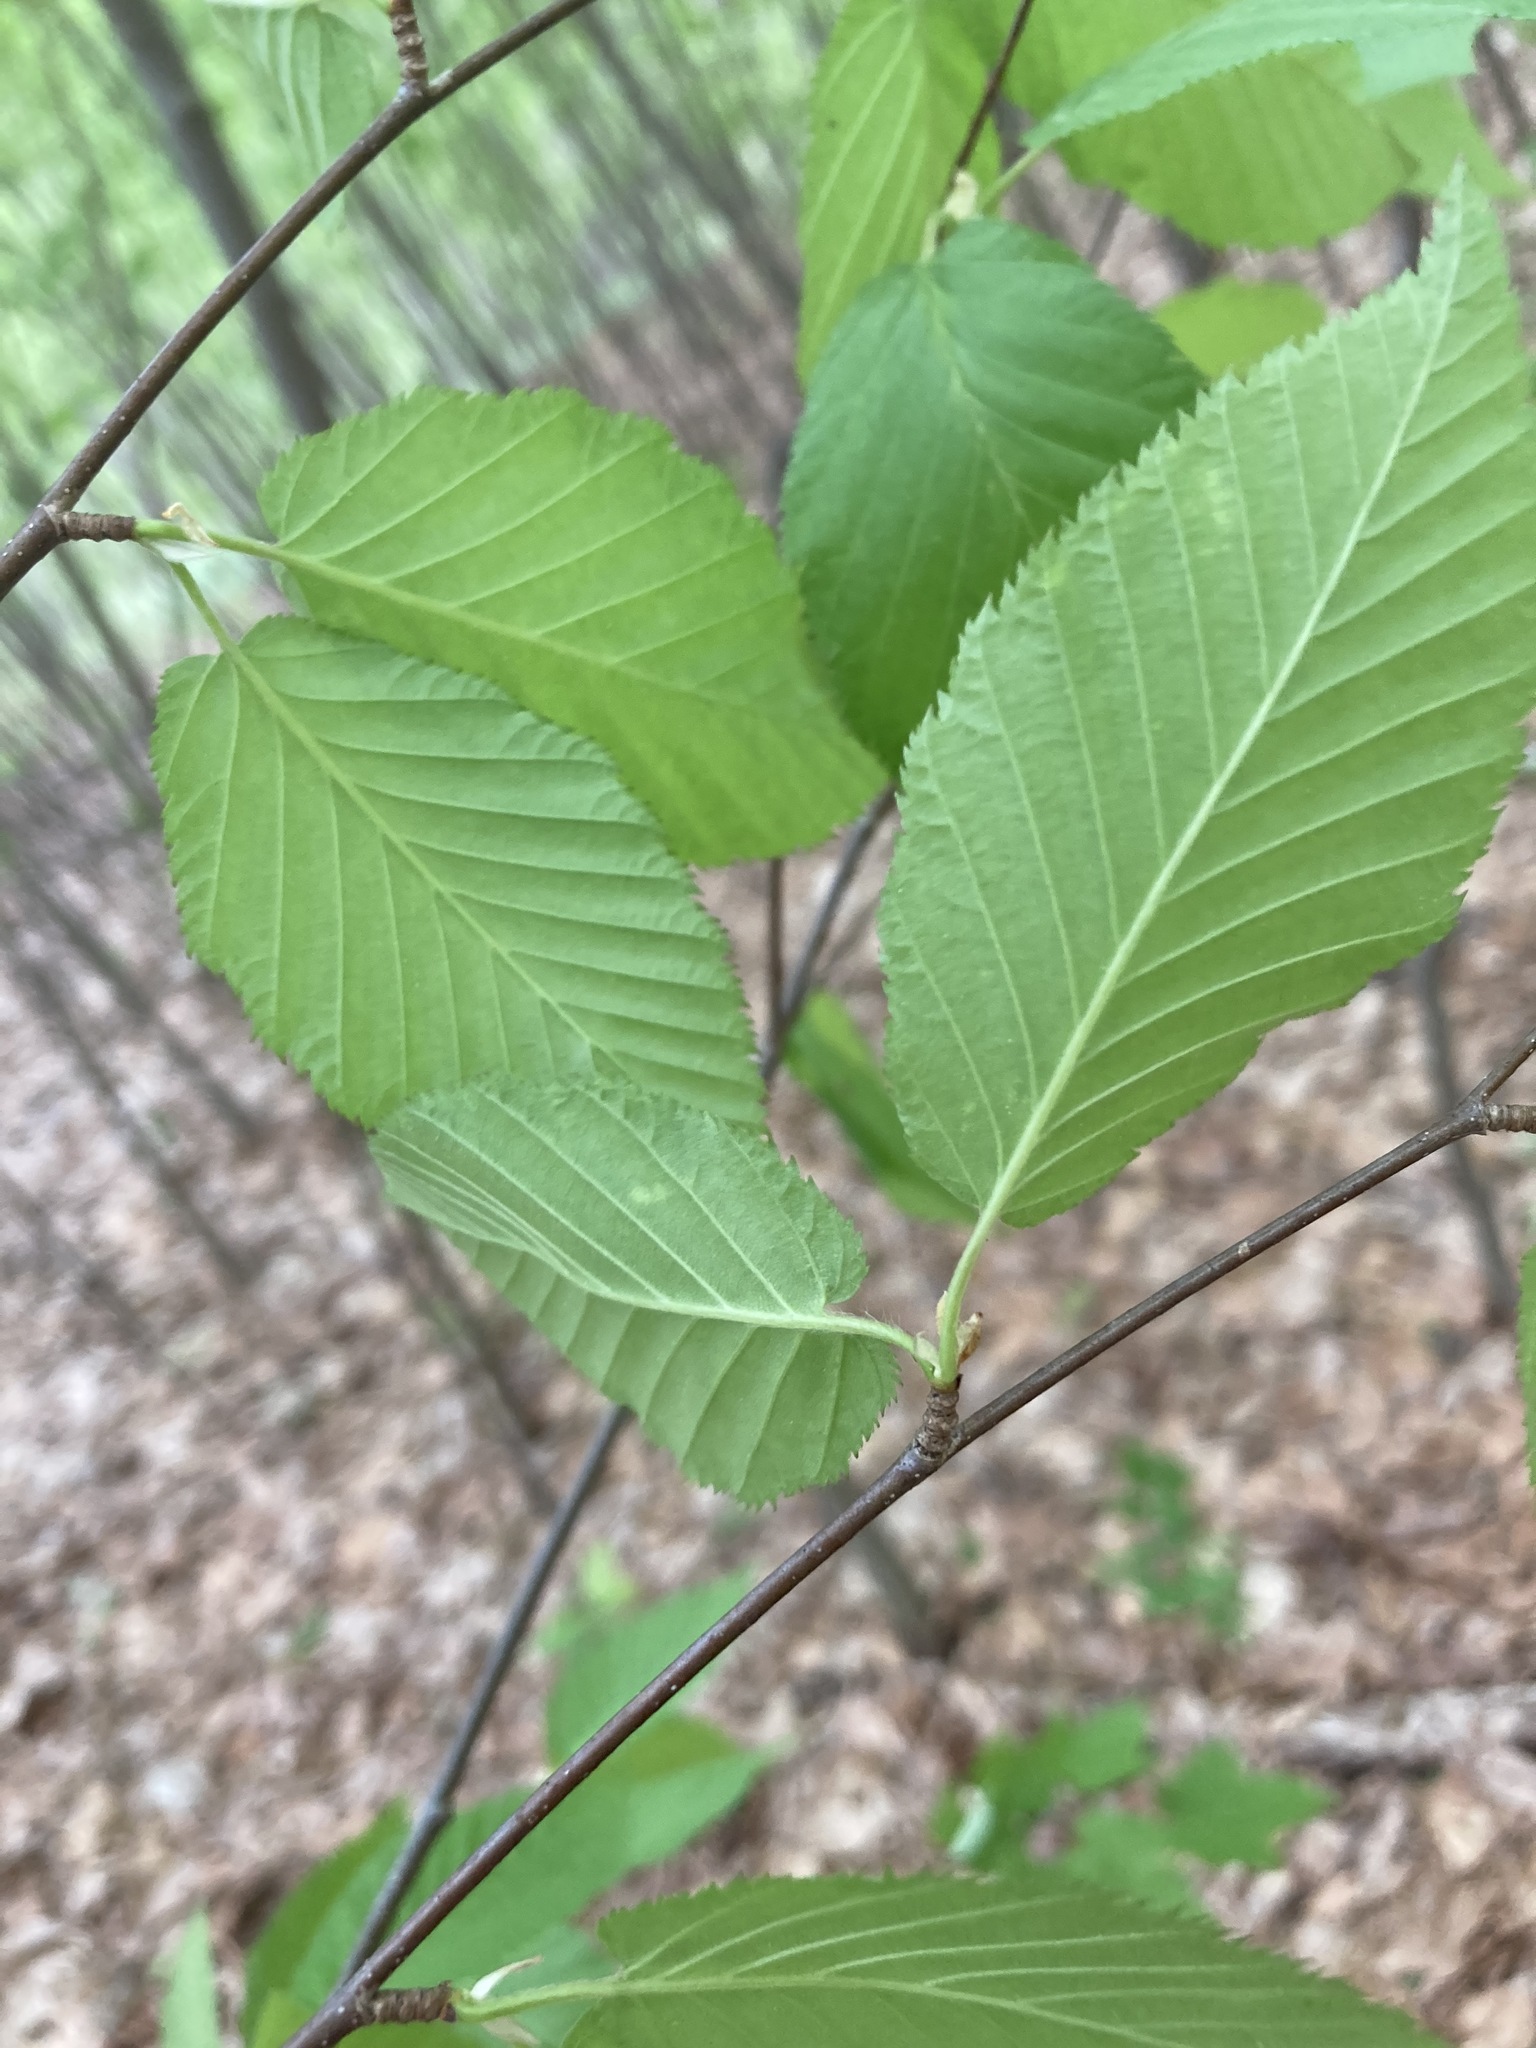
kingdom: Plantae
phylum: Tracheophyta
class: Magnoliopsida
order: Fagales
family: Betulaceae
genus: Betula
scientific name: Betula lenta
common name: Black birch
